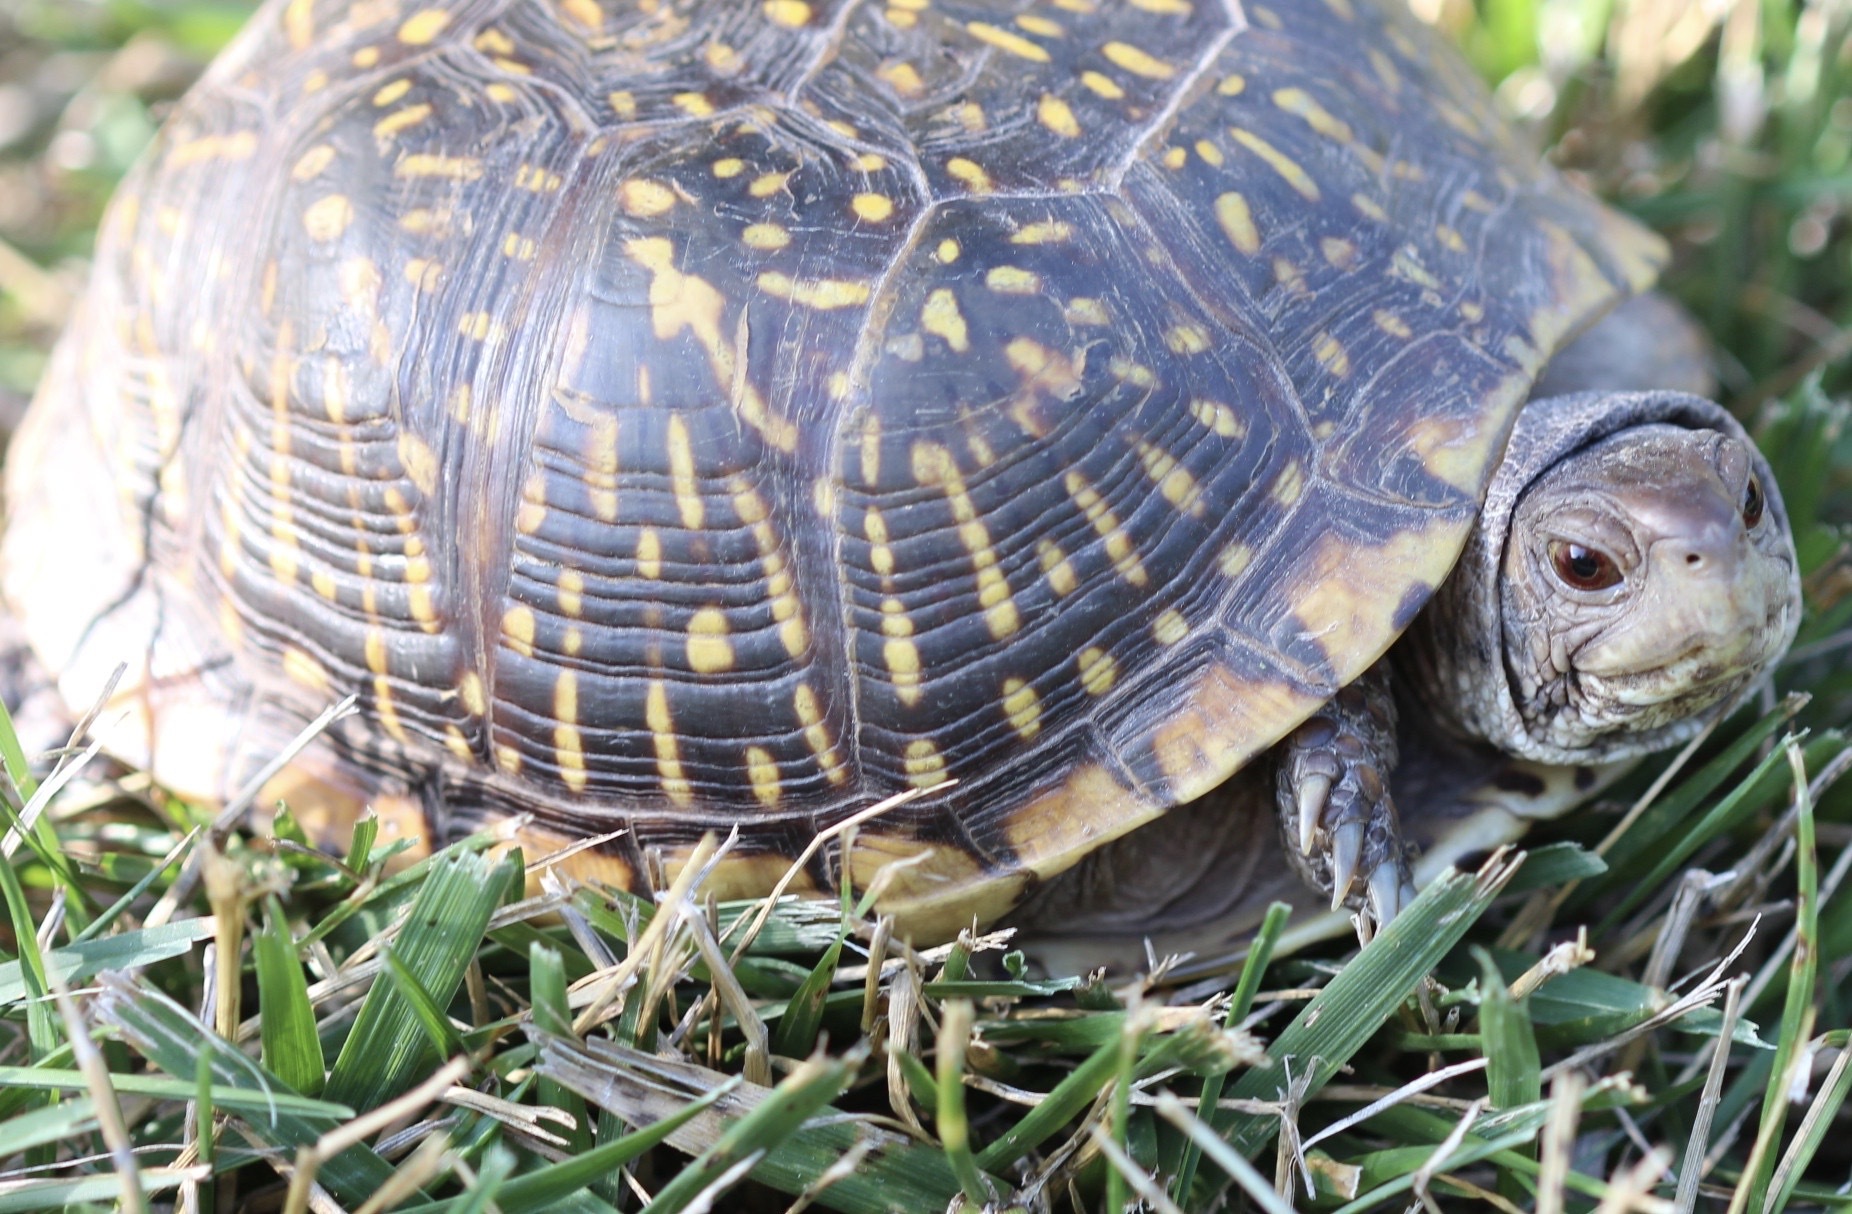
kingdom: Animalia
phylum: Chordata
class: Testudines
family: Emydidae
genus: Terrapene
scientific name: Terrapene ornata
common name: Western box turtle
